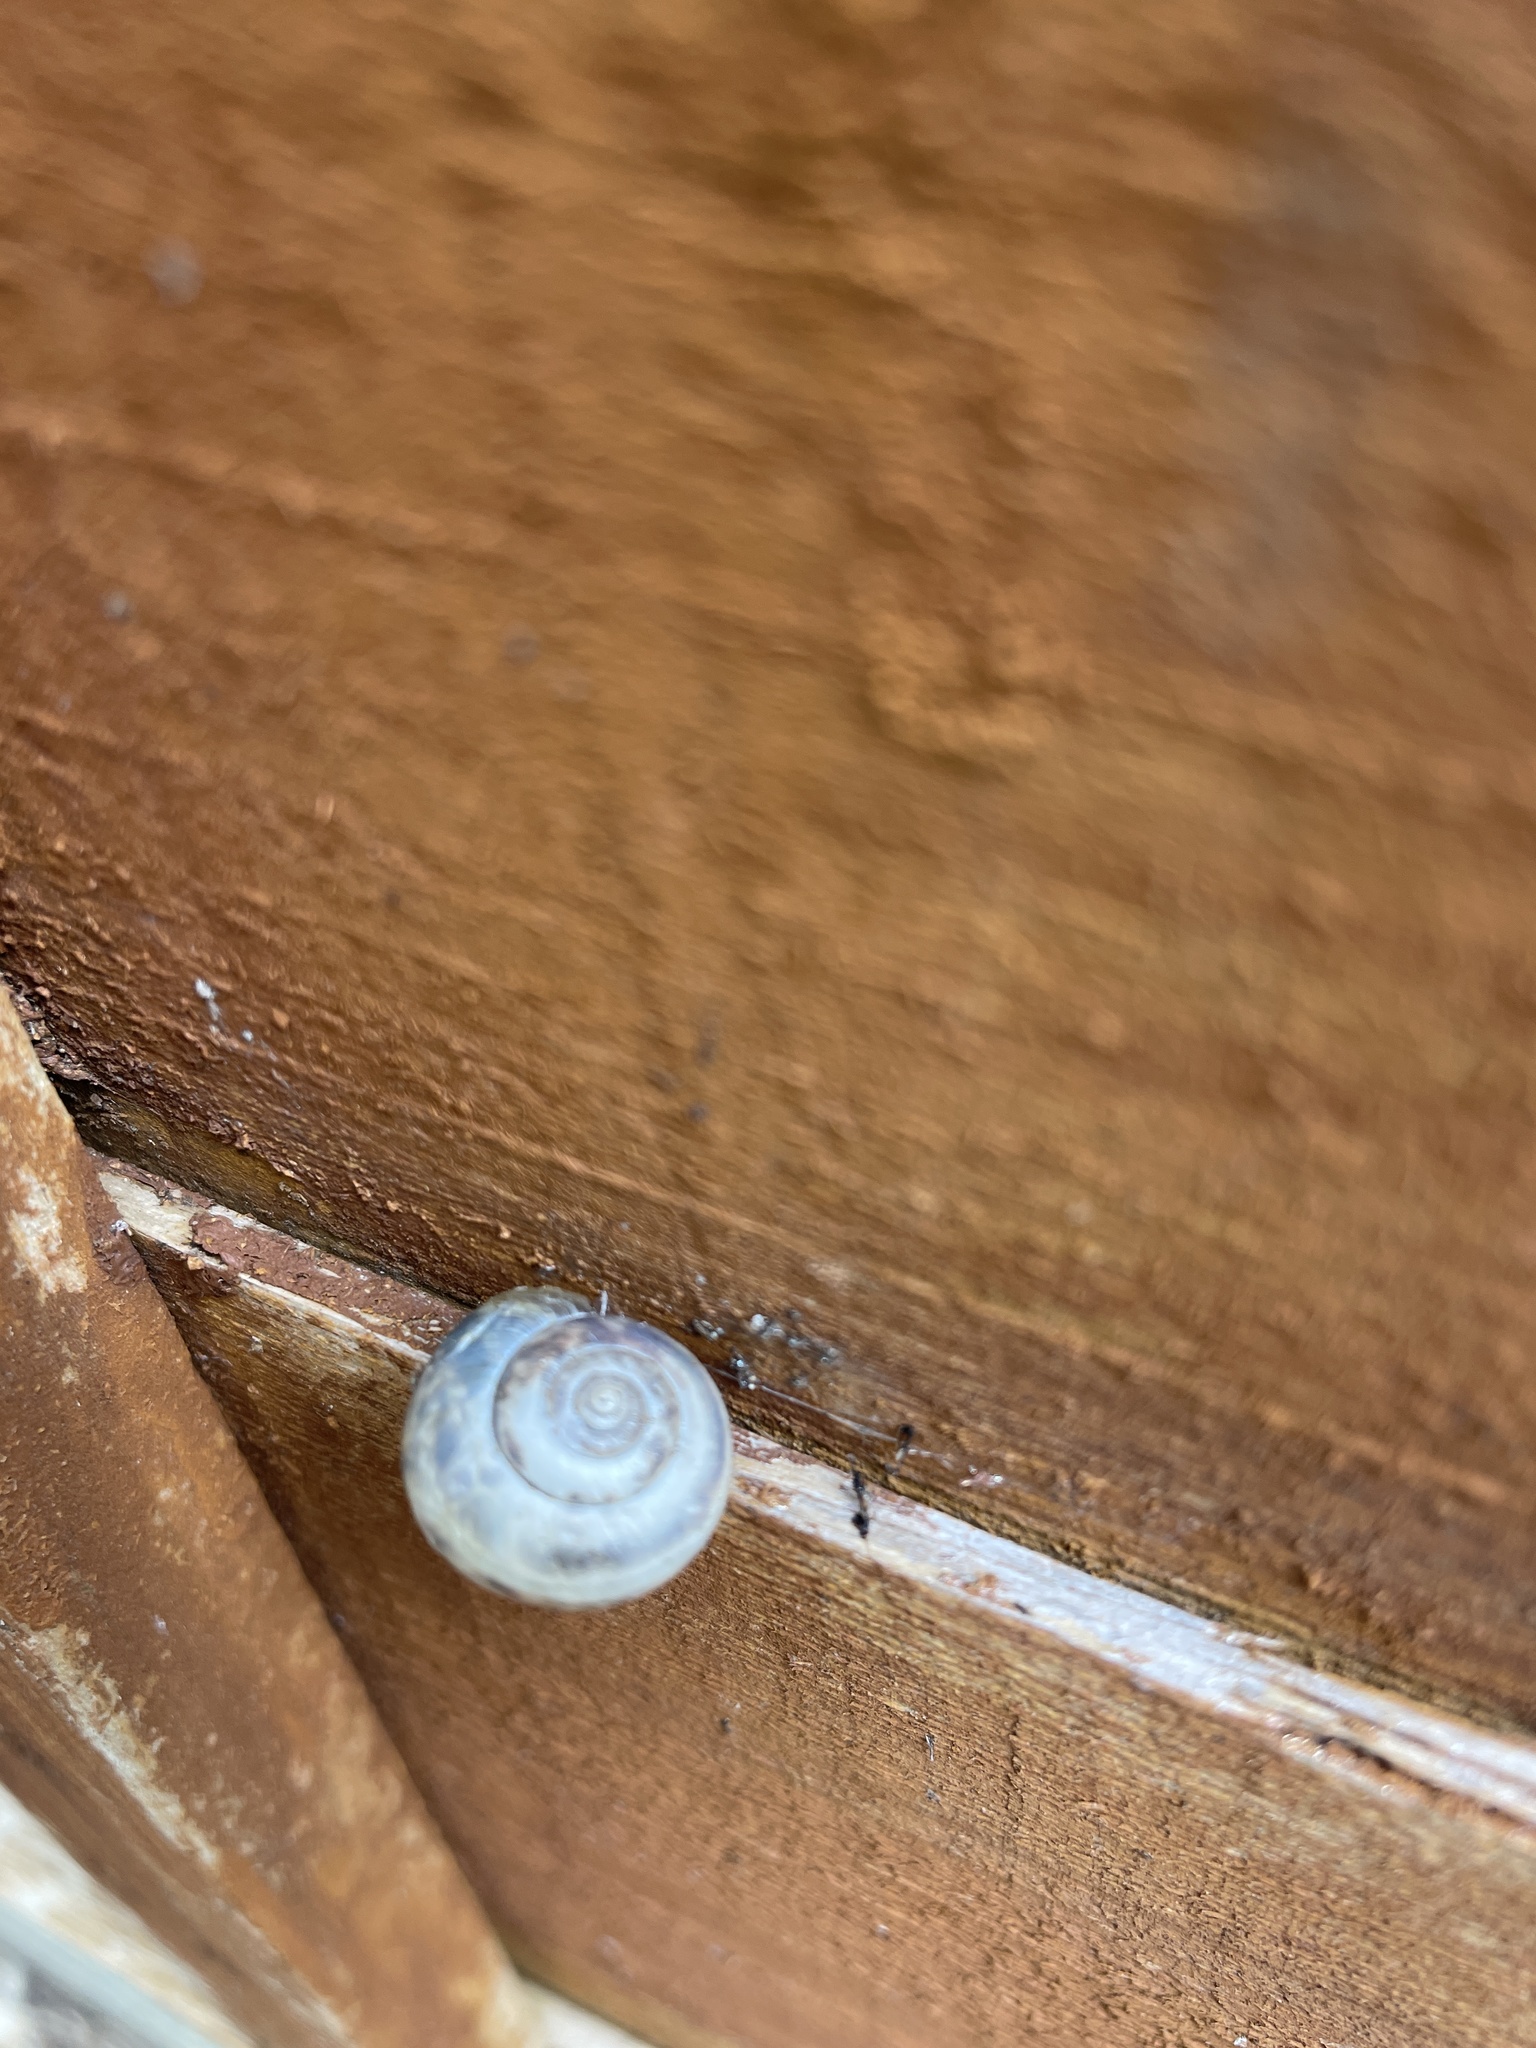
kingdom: Animalia
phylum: Mollusca
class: Gastropoda
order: Stylommatophora
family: Hygromiidae
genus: Monacha
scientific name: Monacha cantiana
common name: Kentish snail
